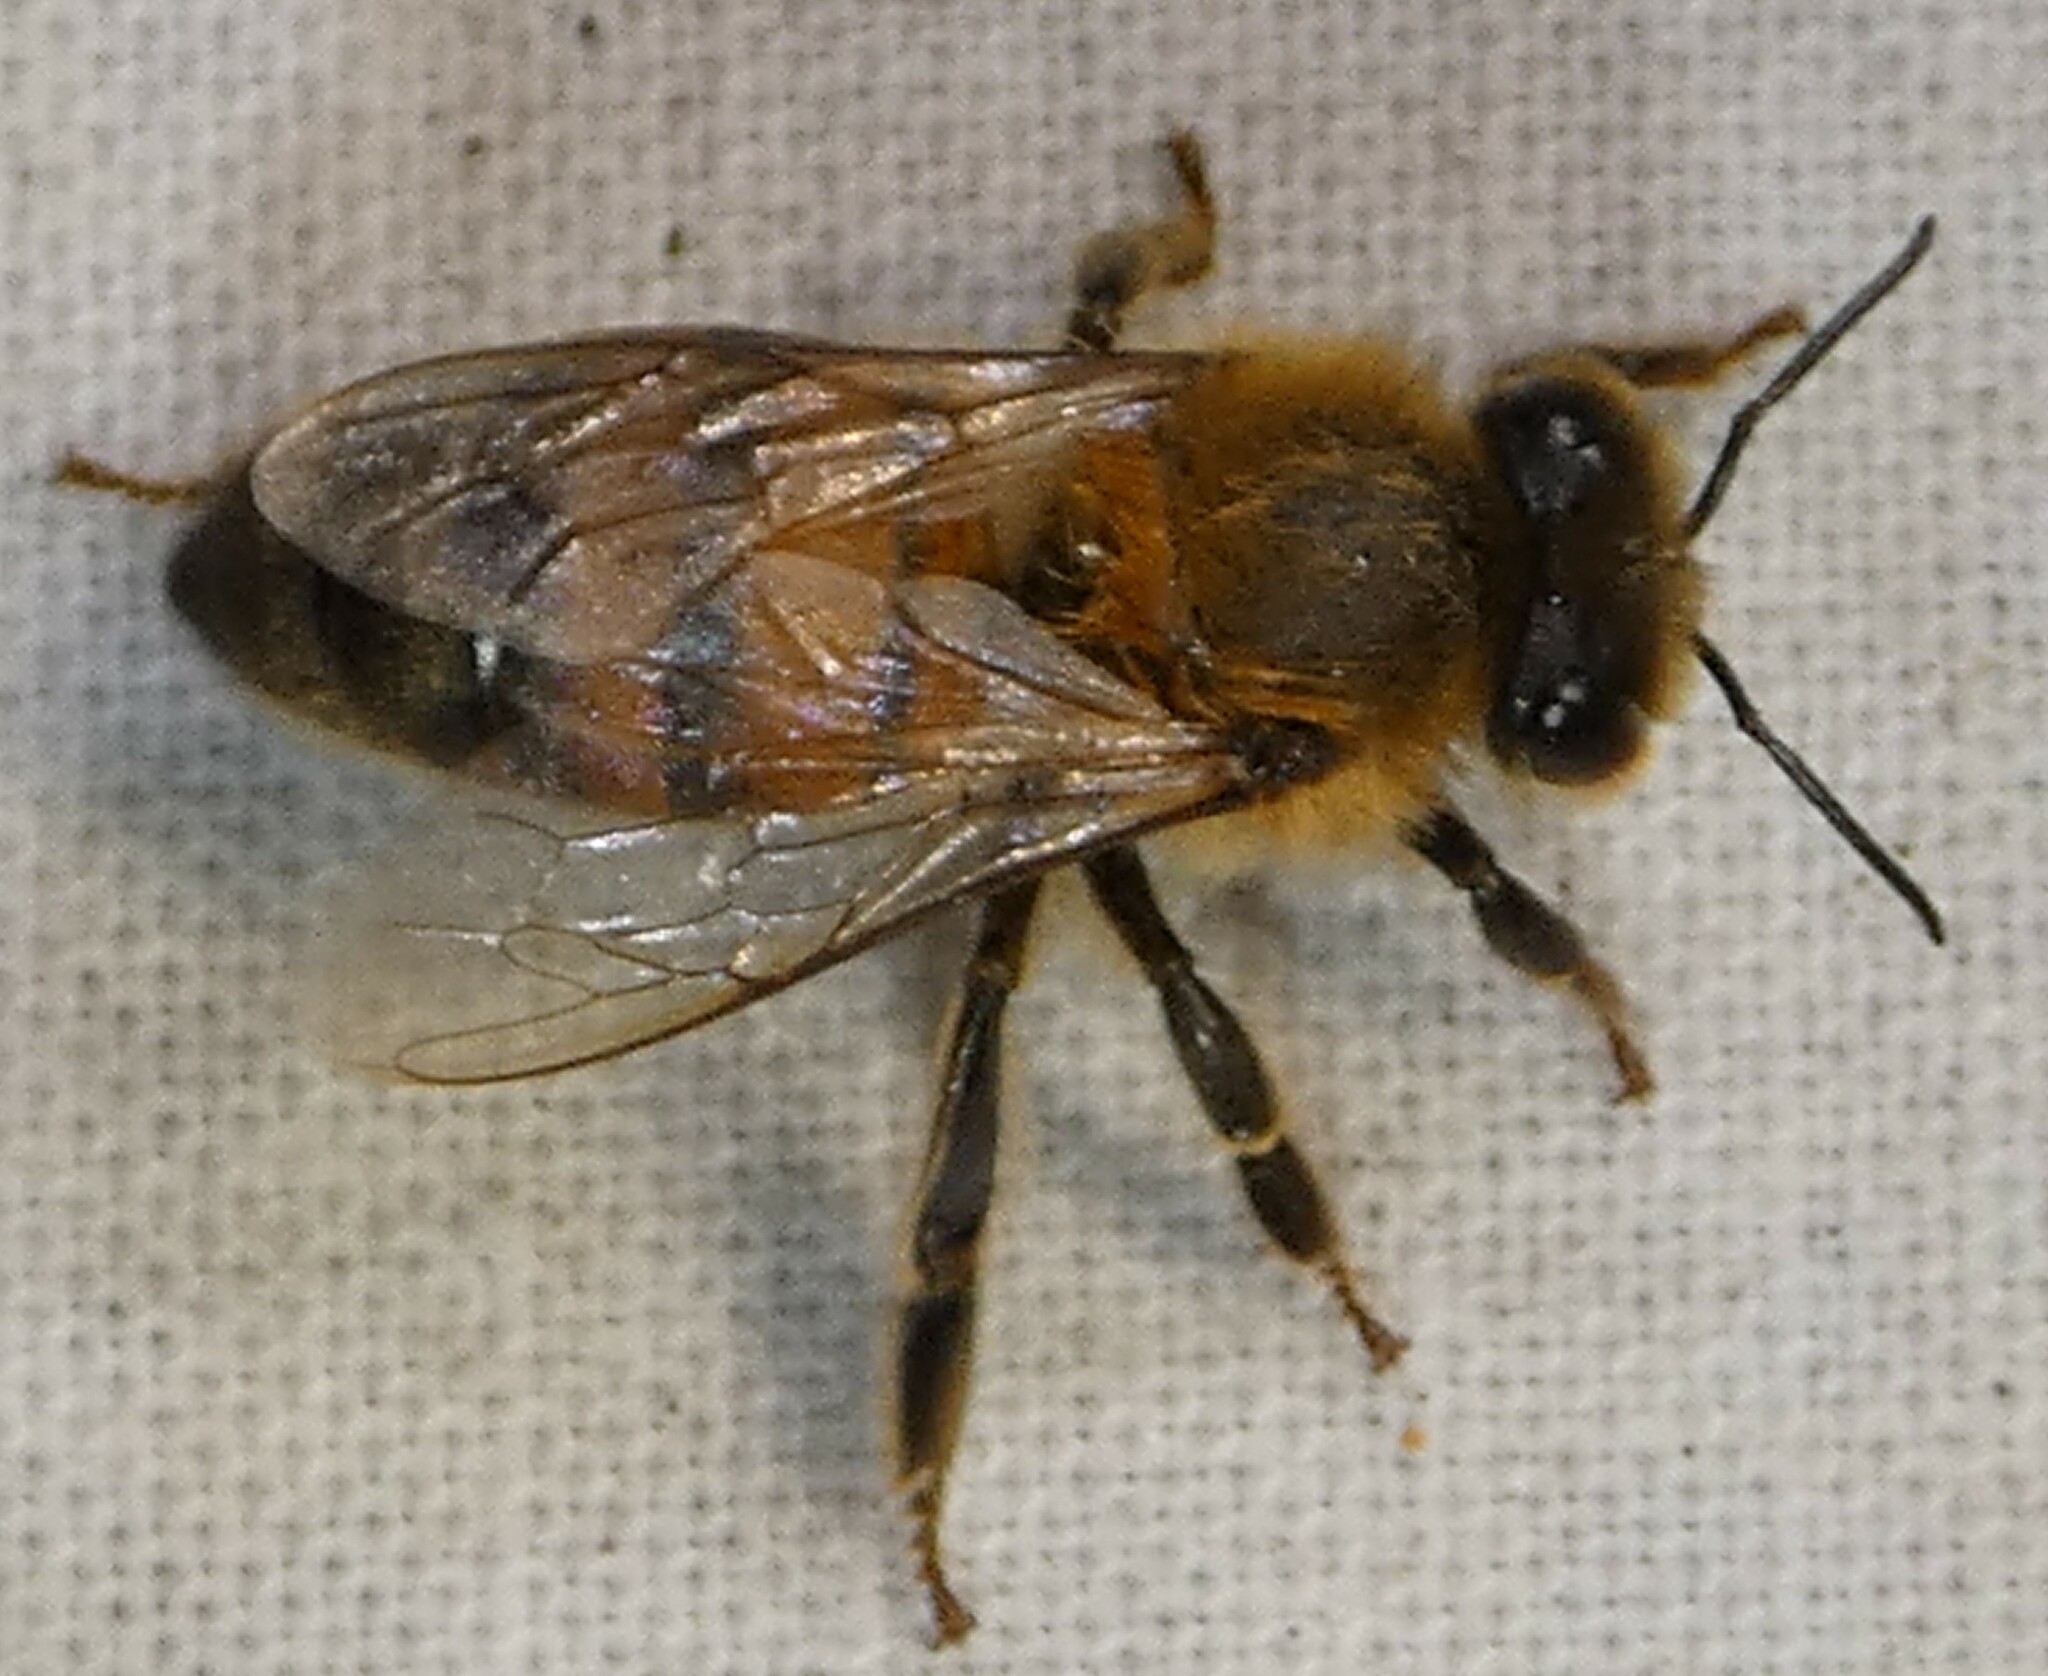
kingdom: Animalia
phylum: Arthropoda
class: Insecta
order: Hymenoptera
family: Apidae
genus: Apis
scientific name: Apis mellifera
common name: Honey bee
